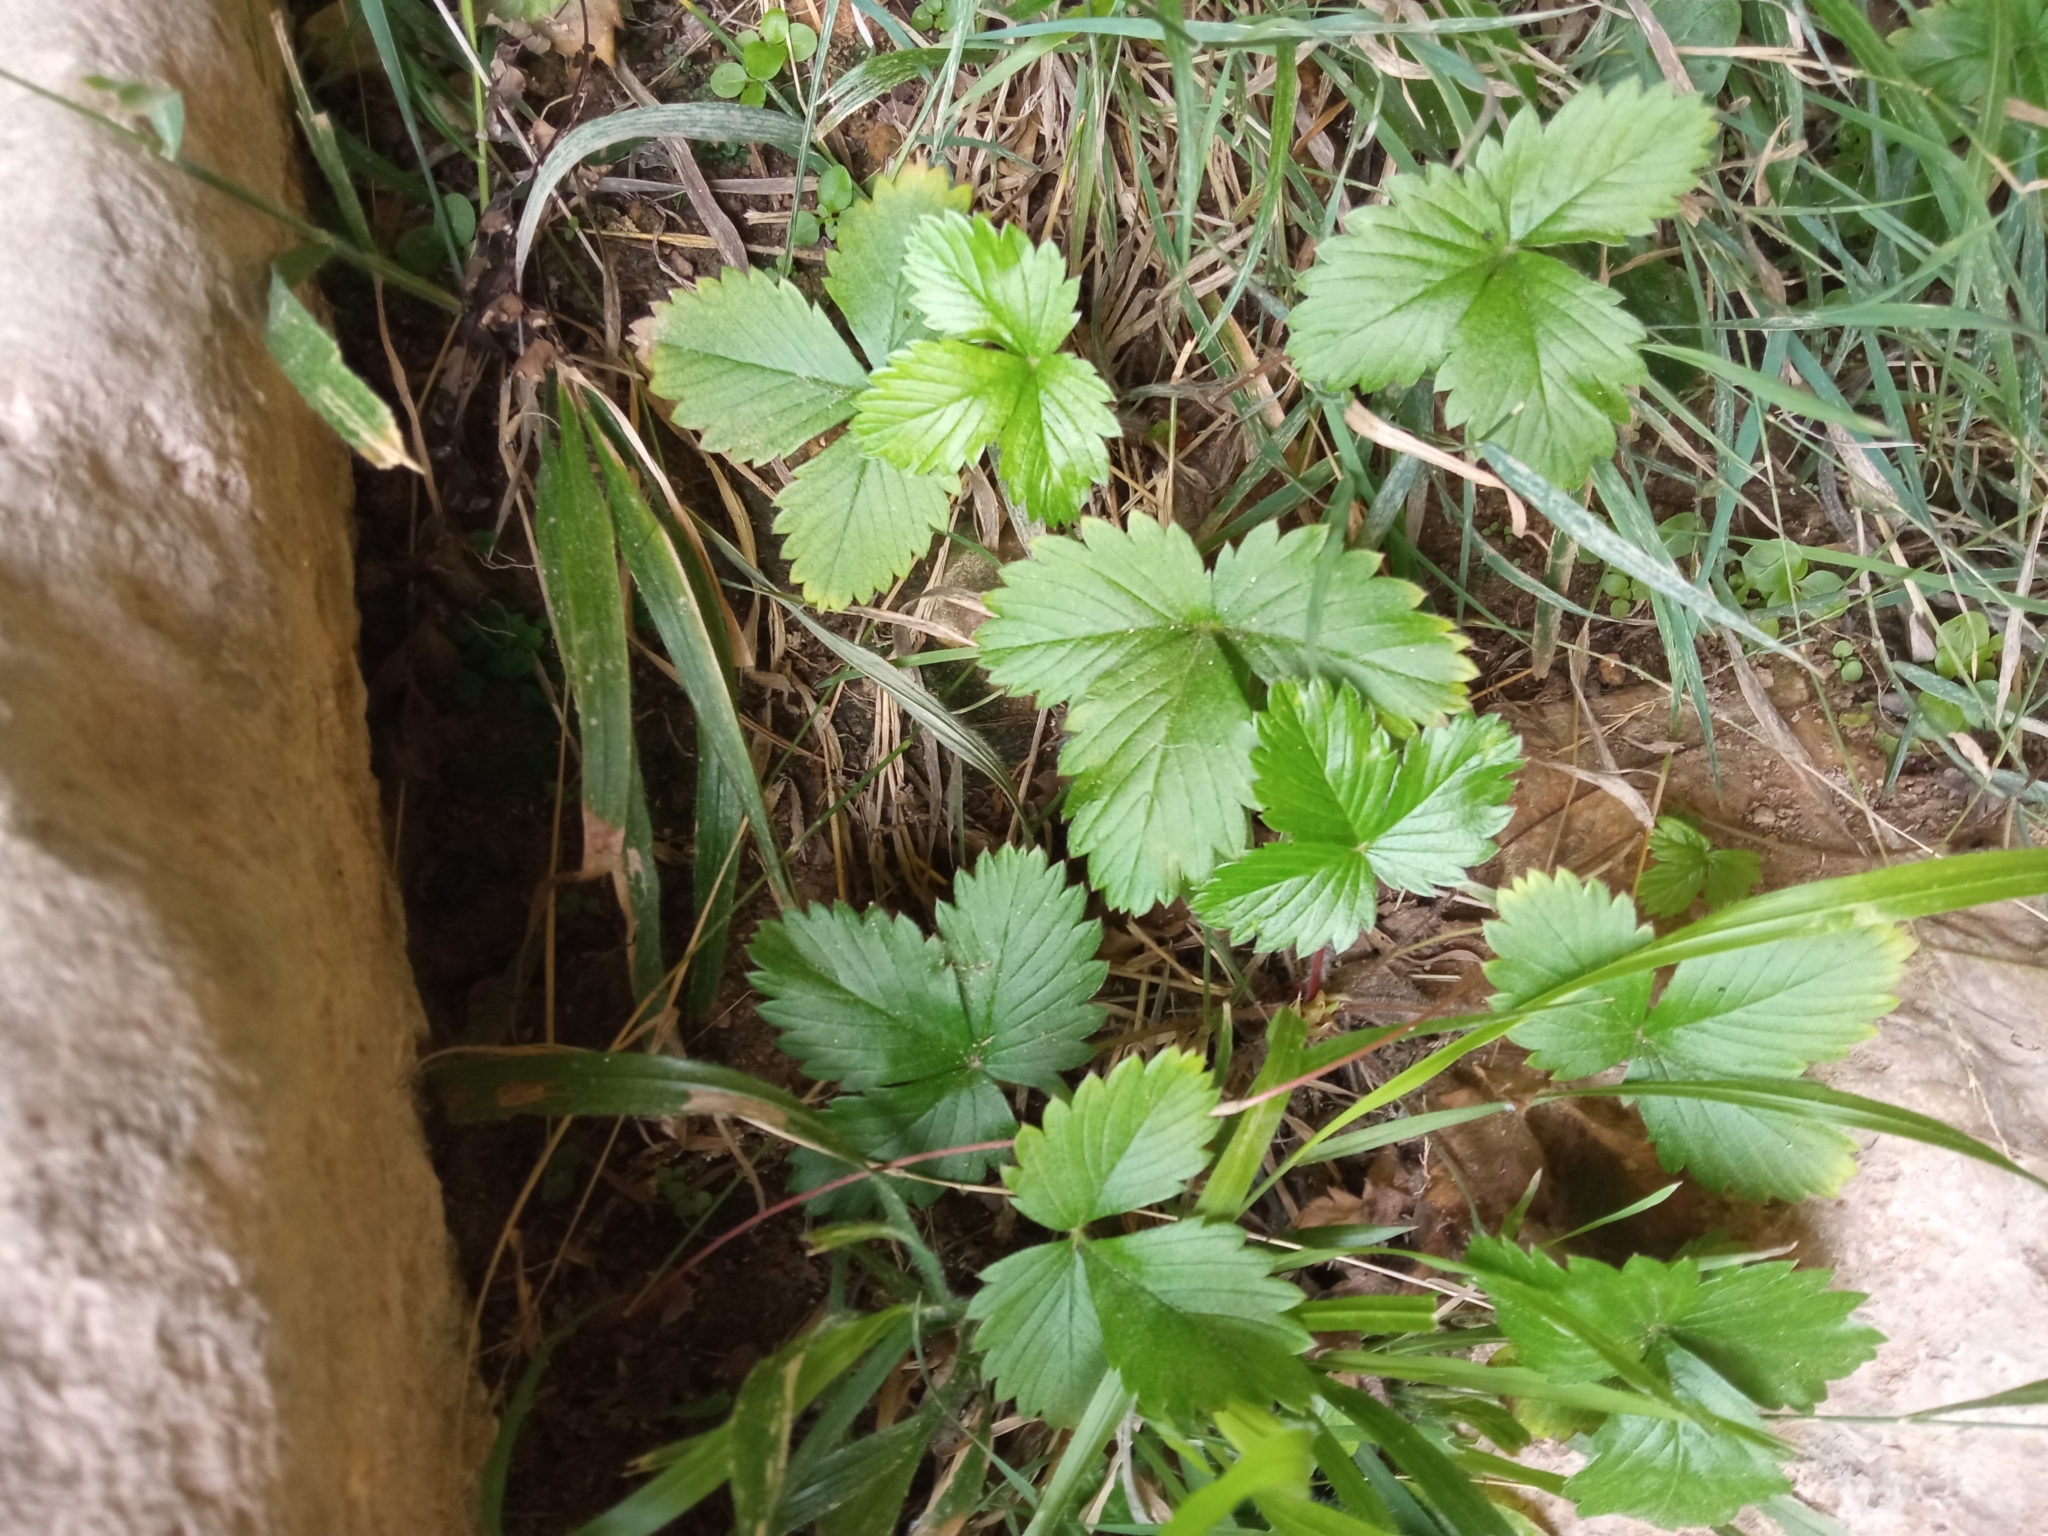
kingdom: Plantae
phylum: Tracheophyta
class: Magnoliopsida
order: Rosales
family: Rosaceae
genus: Fragaria
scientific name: Fragaria vesca
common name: Wild strawberry
